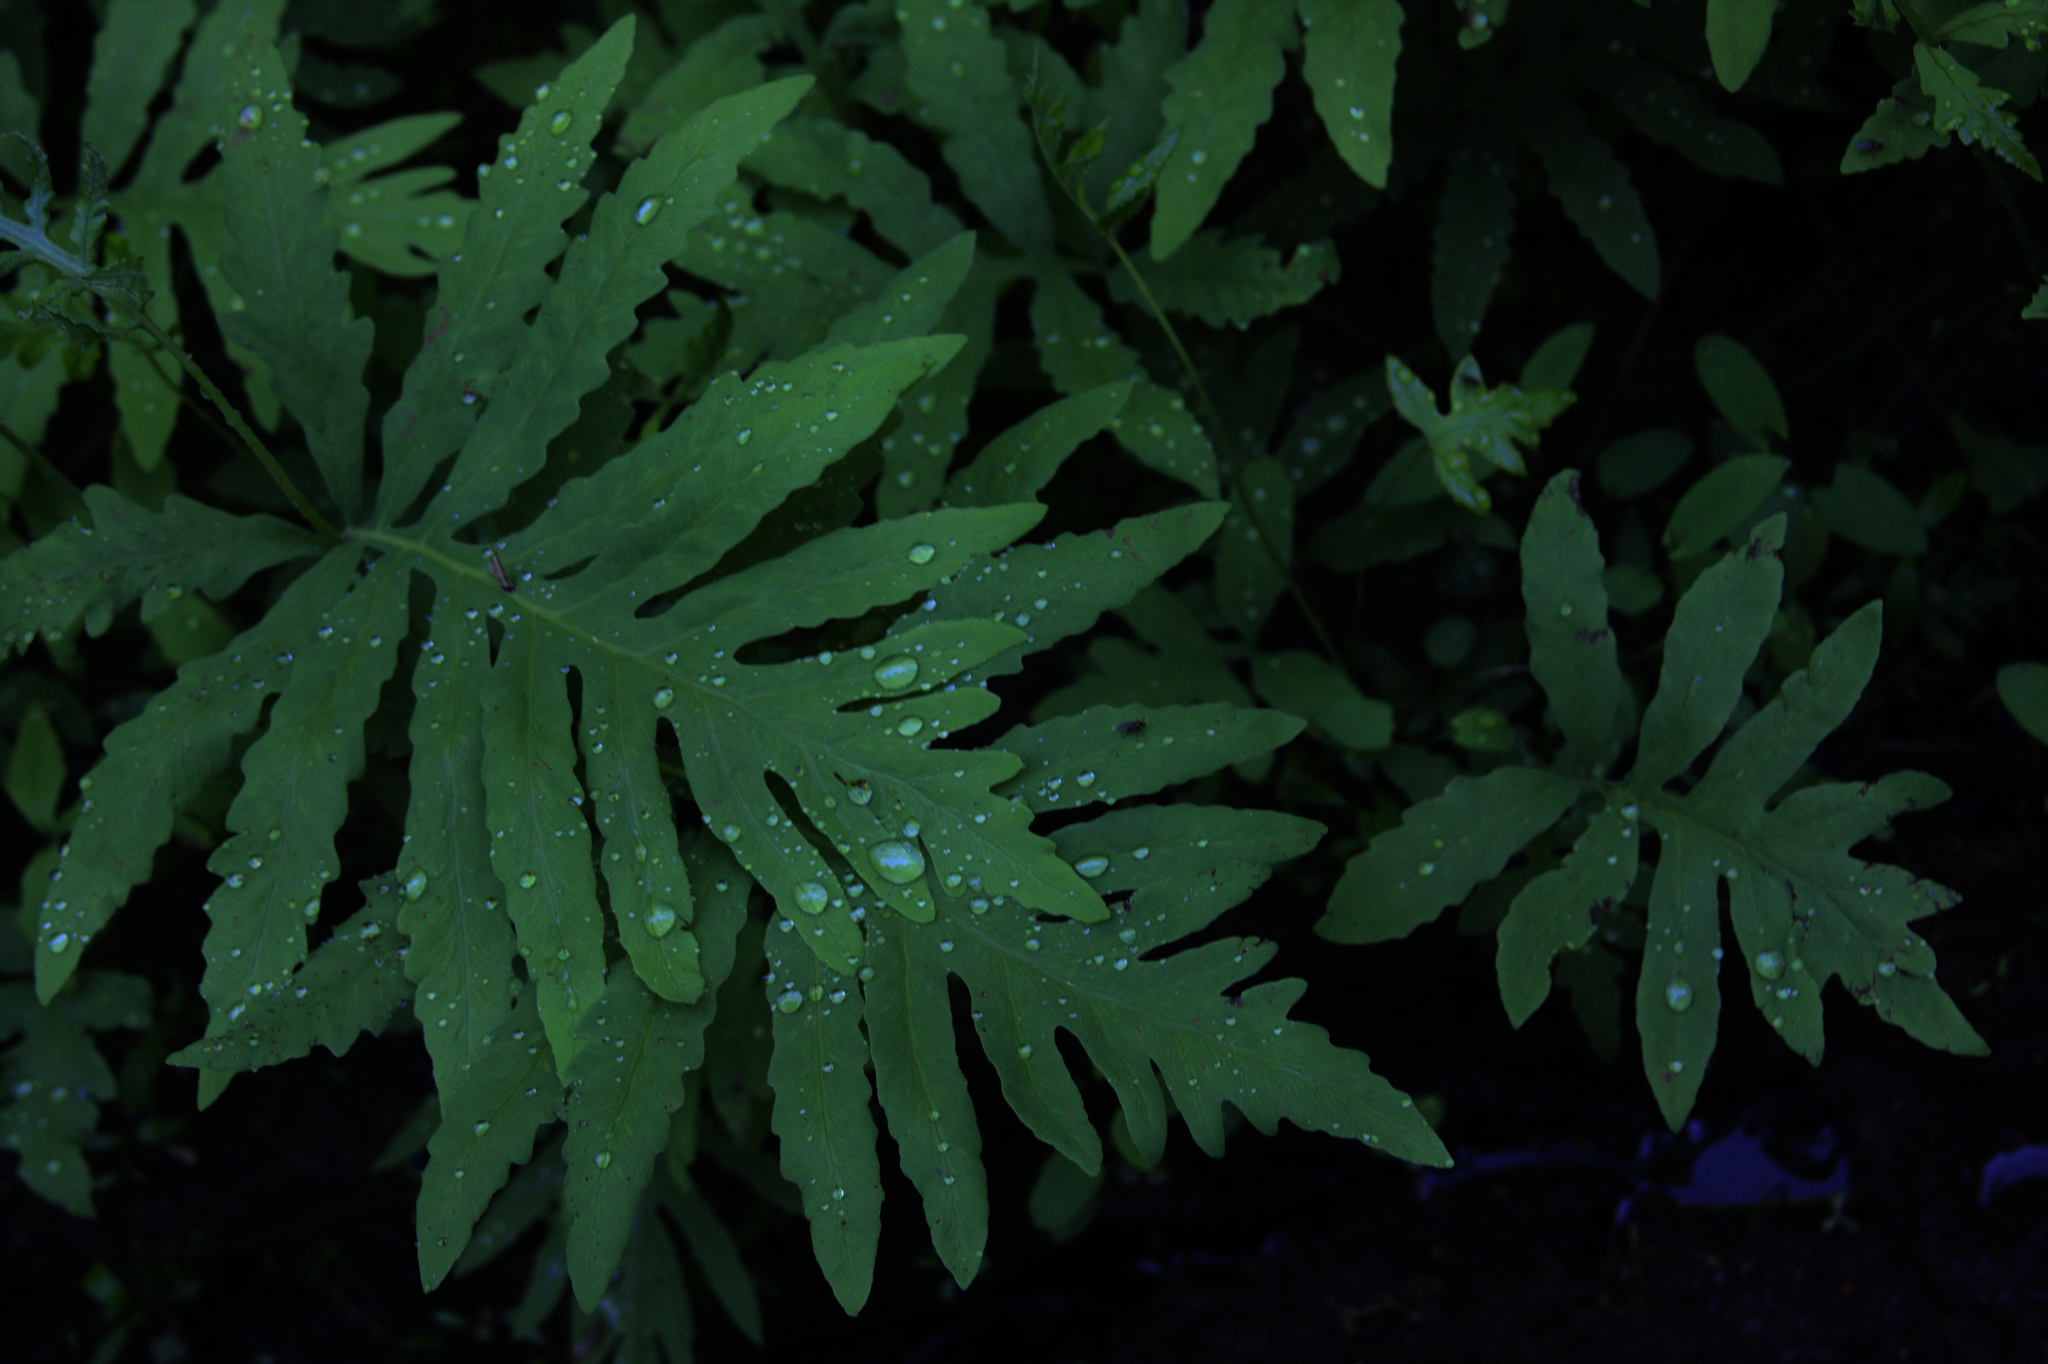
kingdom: Plantae
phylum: Tracheophyta
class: Polypodiopsida
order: Polypodiales
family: Onocleaceae
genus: Onoclea
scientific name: Onoclea sensibilis
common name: Sensitive fern
